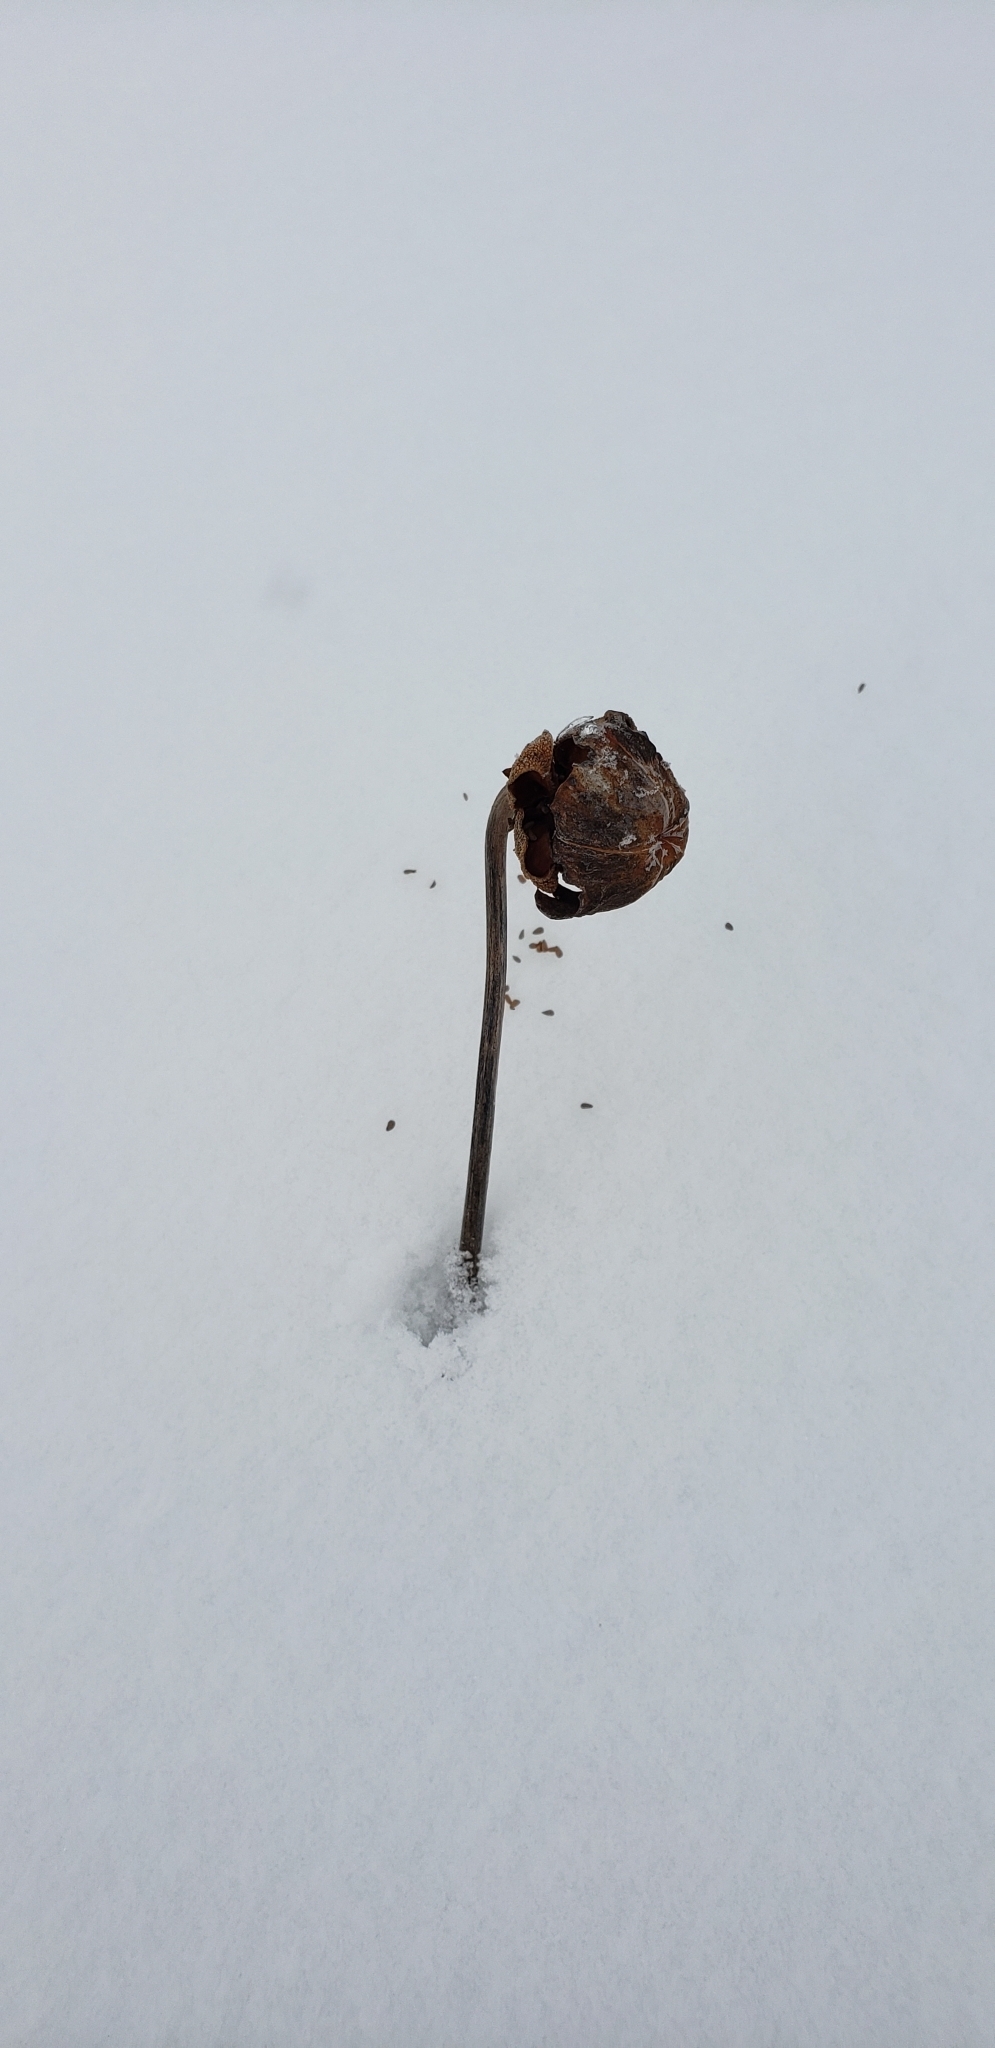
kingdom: Plantae
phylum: Tracheophyta
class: Magnoliopsida
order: Ericales
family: Sarraceniaceae
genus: Sarracenia
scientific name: Sarracenia purpurea
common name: Pitcherplant
